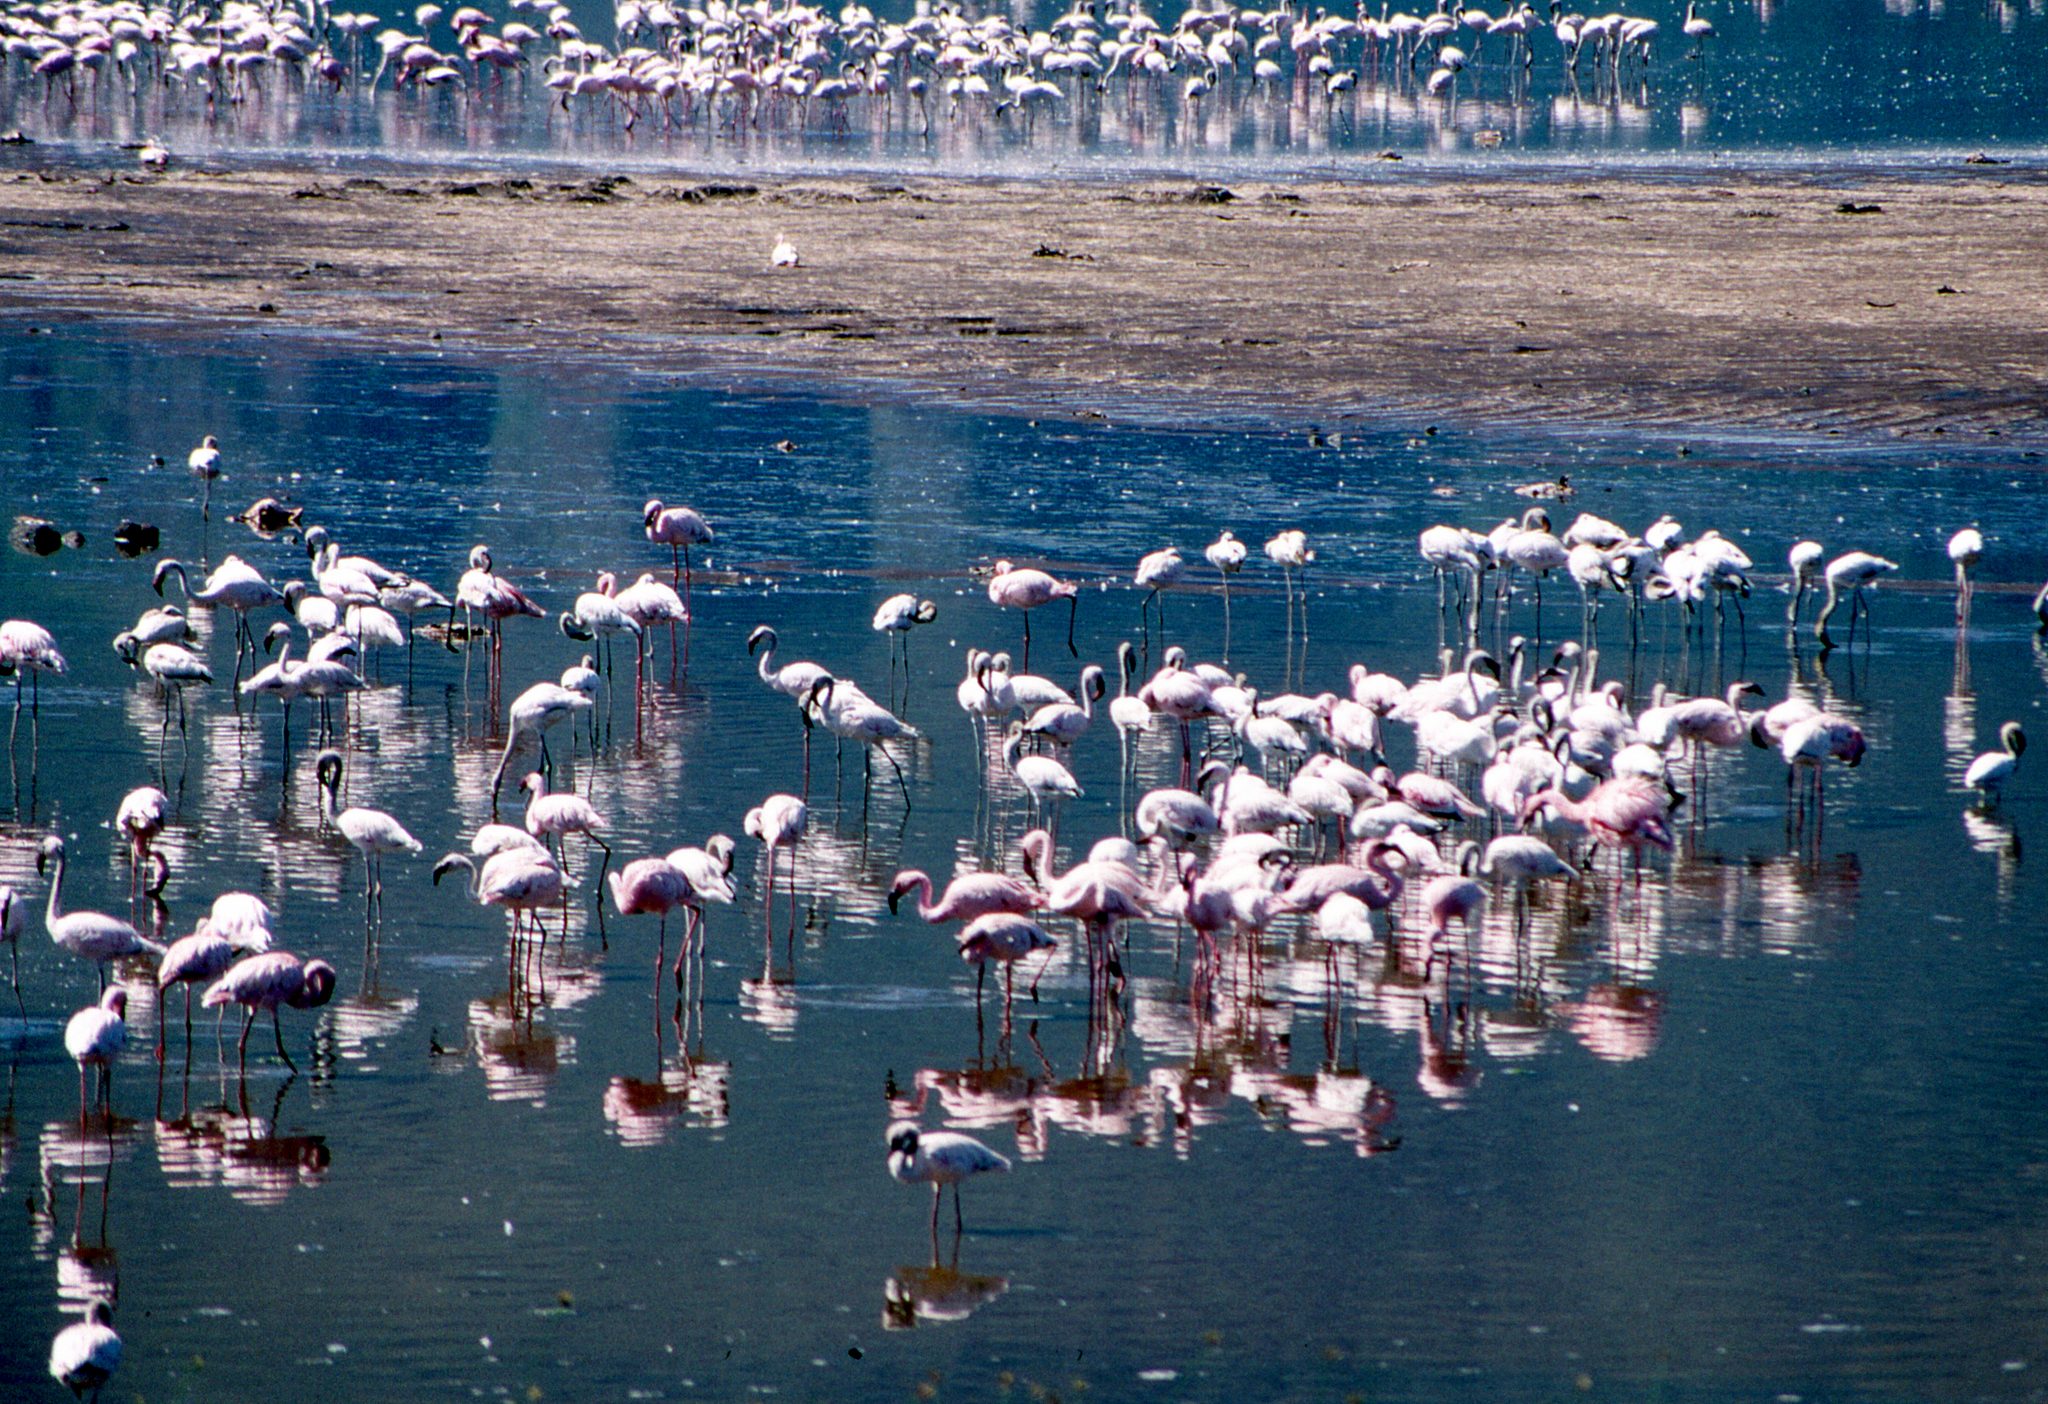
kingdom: Animalia
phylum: Chordata
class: Aves
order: Phoenicopteriformes
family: Phoenicopteridae
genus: Phoeniconaias
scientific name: Phoeniconaias minor
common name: Lesser flamingo
